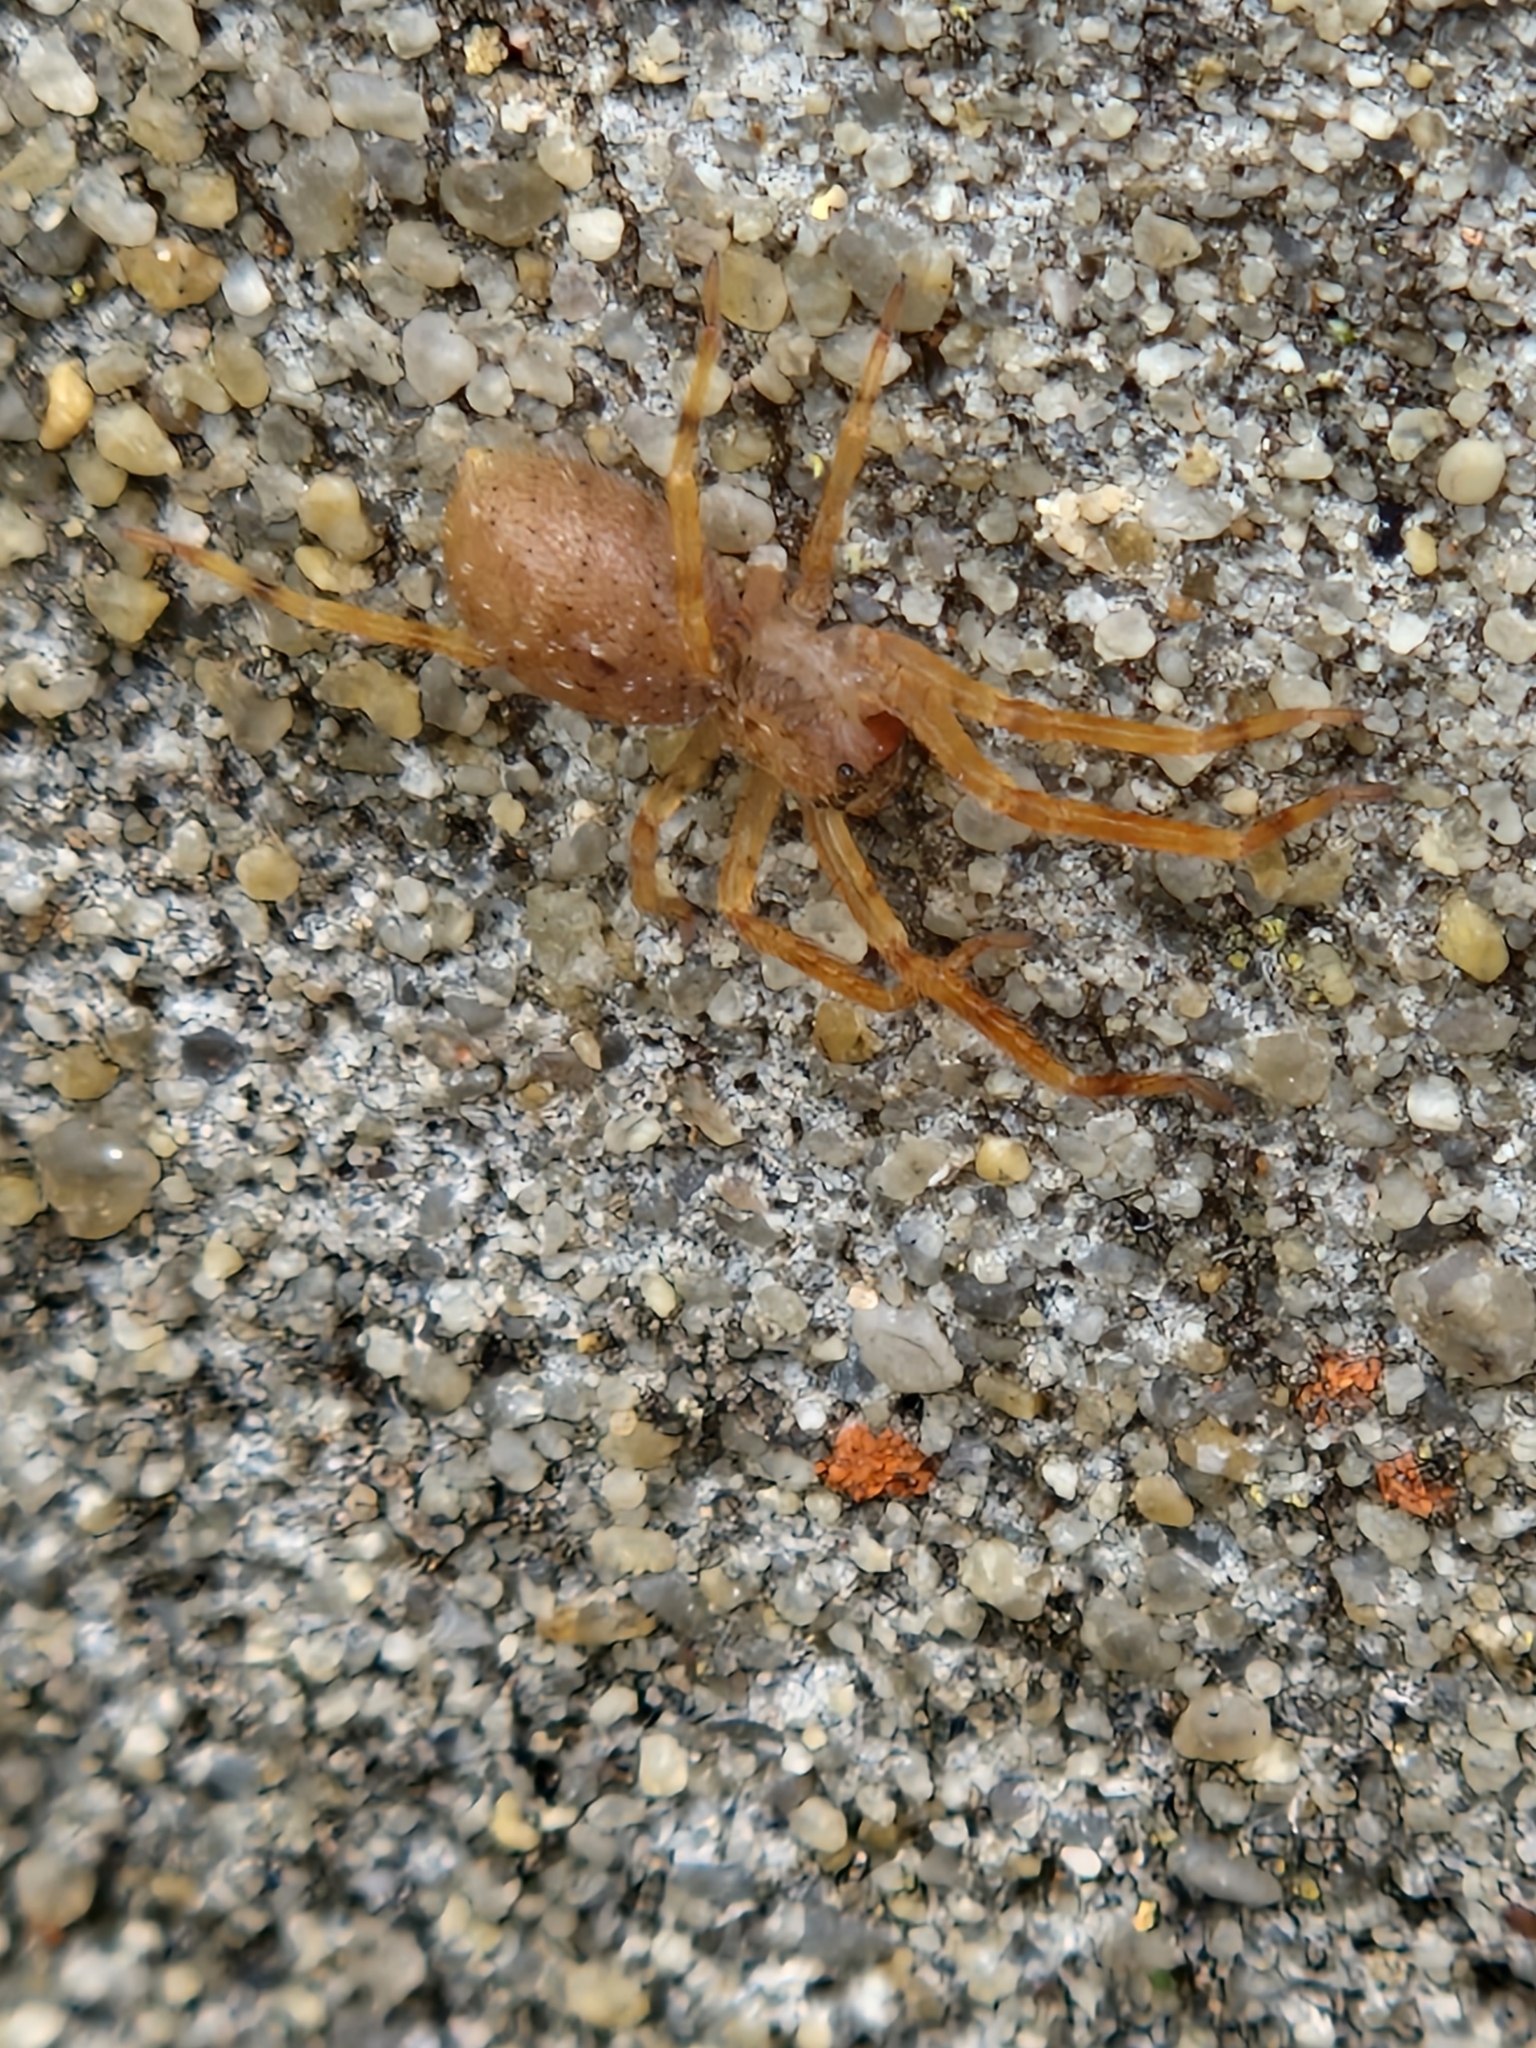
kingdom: Animalia
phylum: Arthropoda
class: Arachnida
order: Araneae
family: Zoropsidae
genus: Zoropsis
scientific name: Zoropsis spinimana
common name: Zoropsid spider
